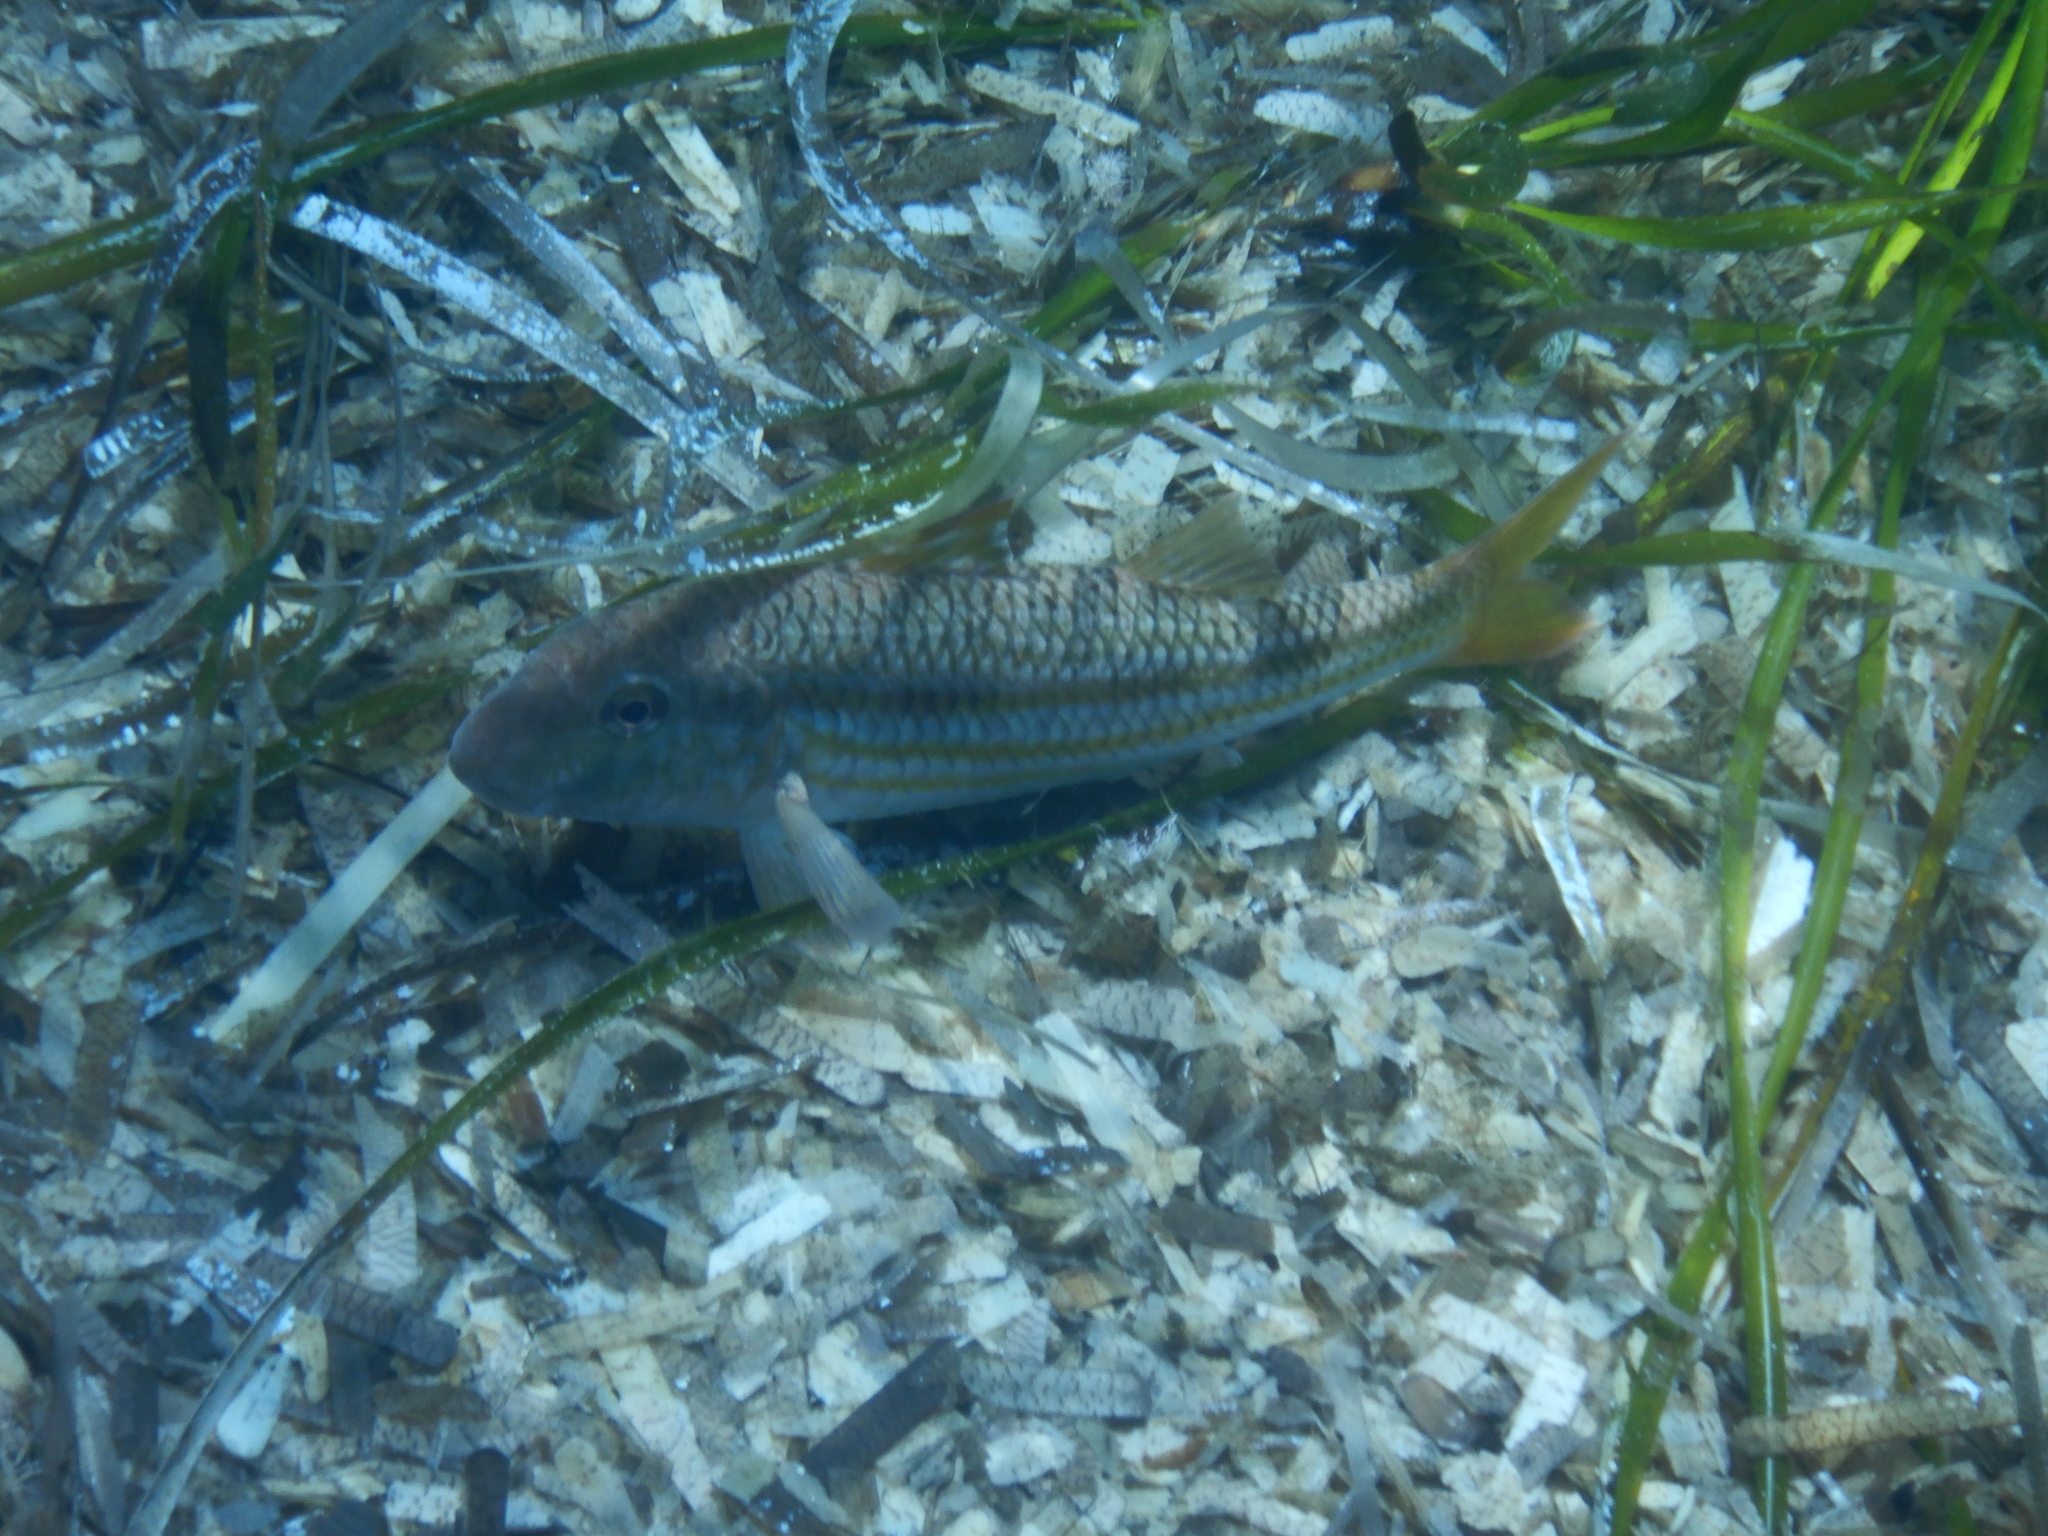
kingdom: Animalia
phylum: Chordata
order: Perciformes
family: Mullidae
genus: Mullus
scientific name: Mullus surmuletus
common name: Red mullet
